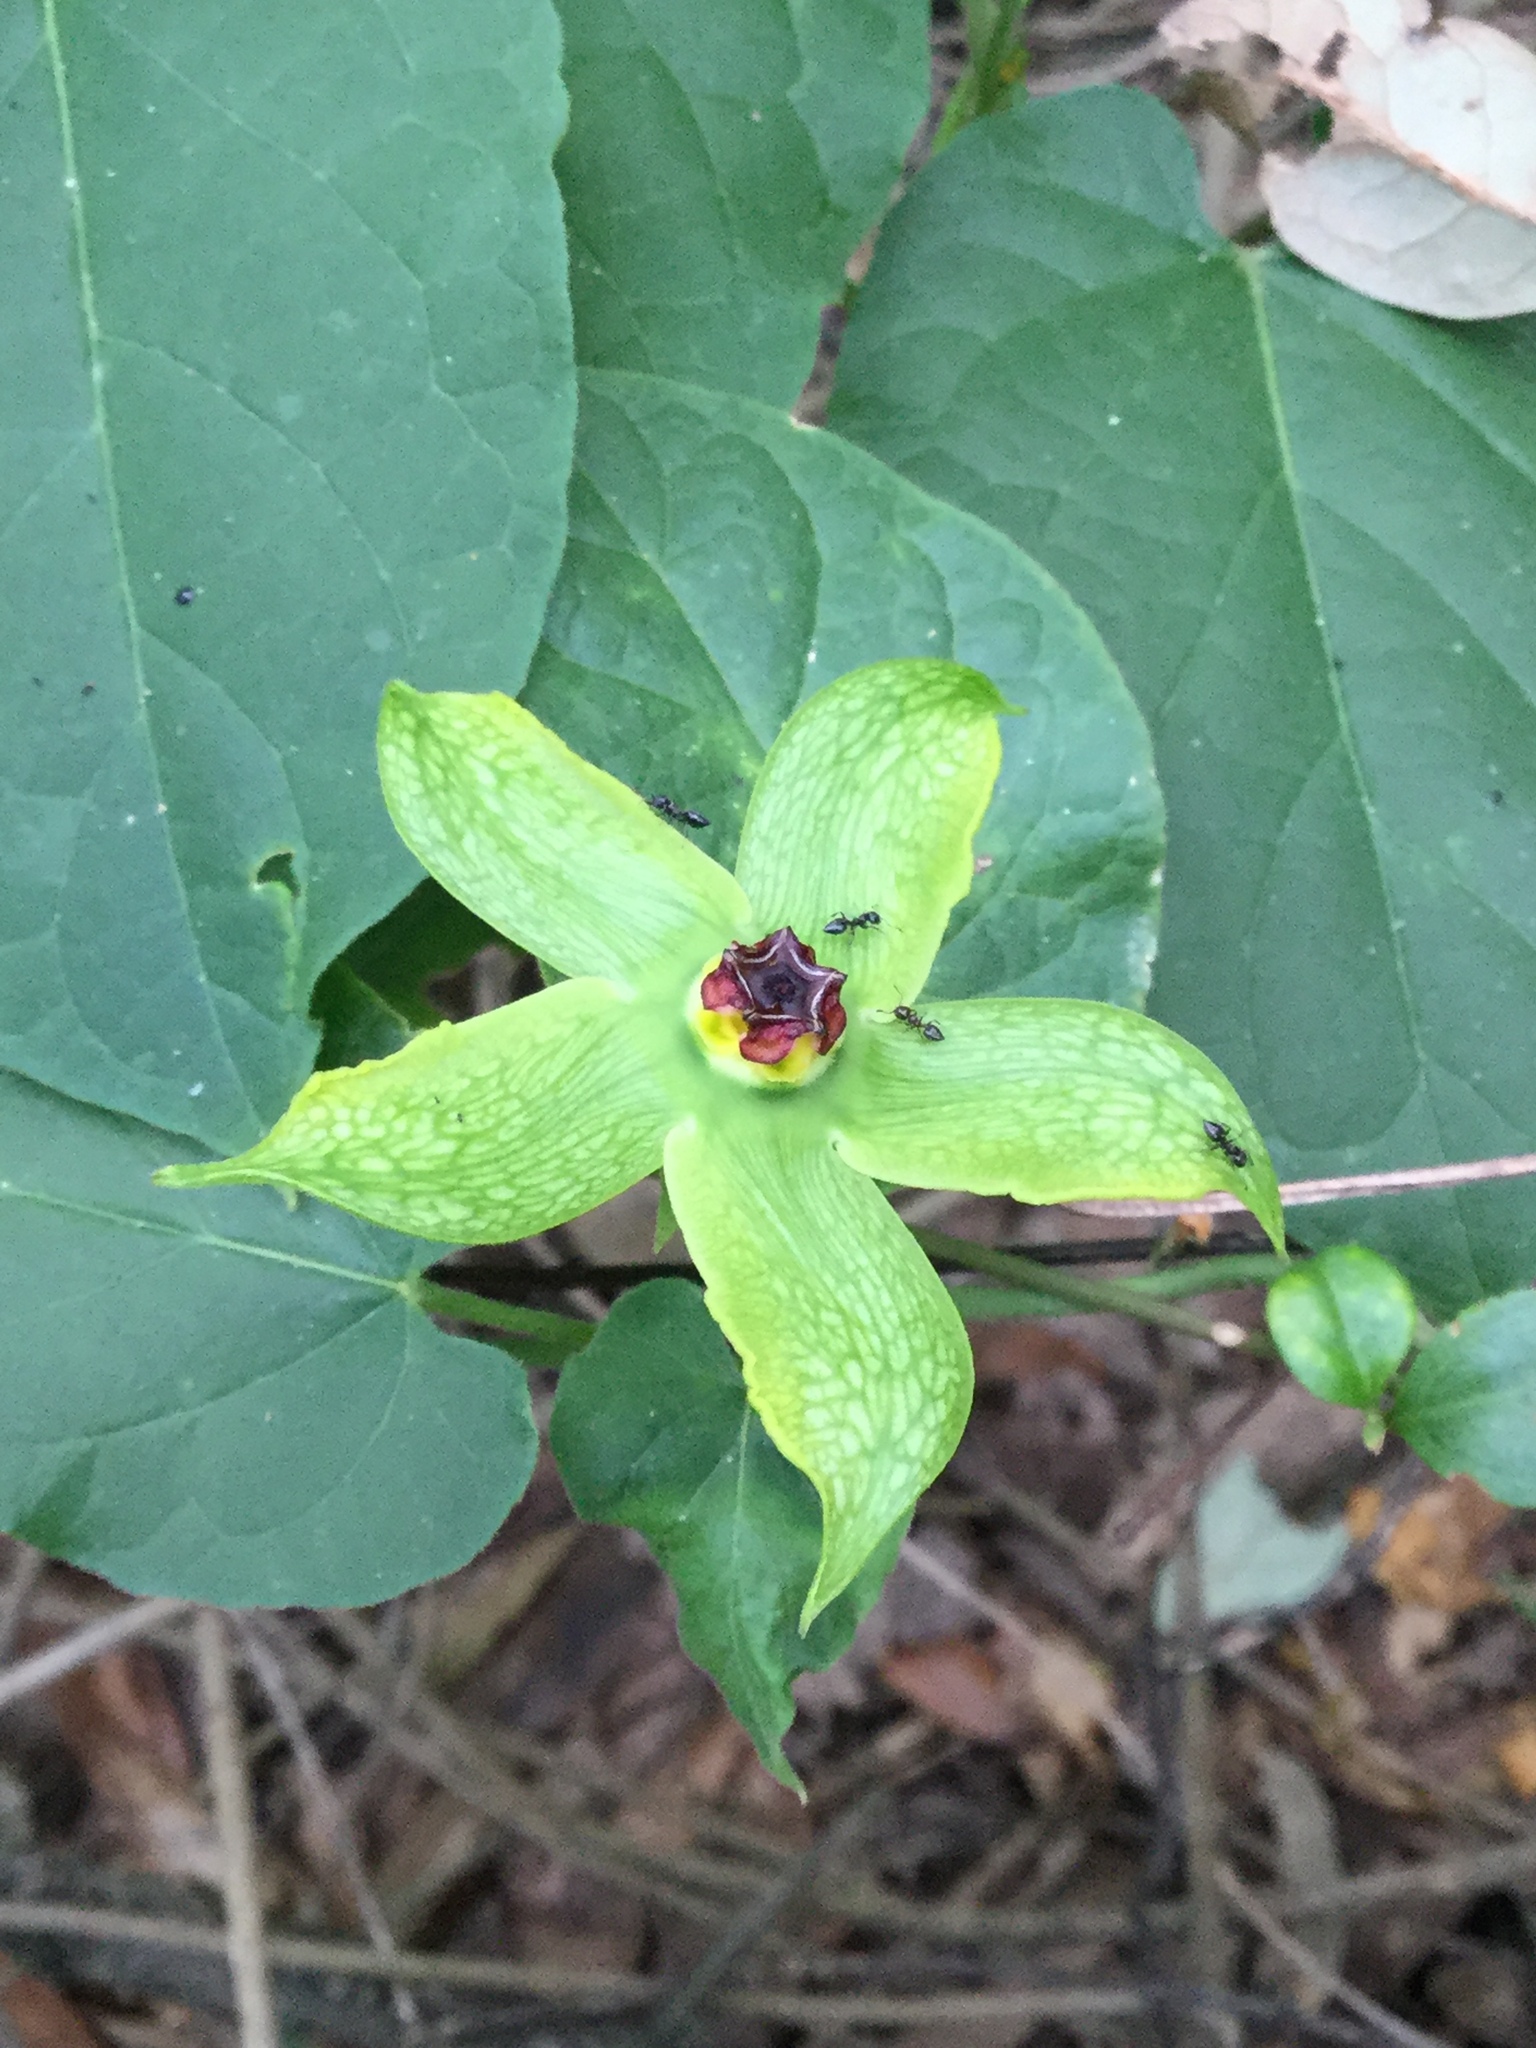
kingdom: Plantae
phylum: Tracheophyta
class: Magnoliopsida
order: Gentianales
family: Apocynaceae
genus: Gonolobus
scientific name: Gonolobus erianthus
